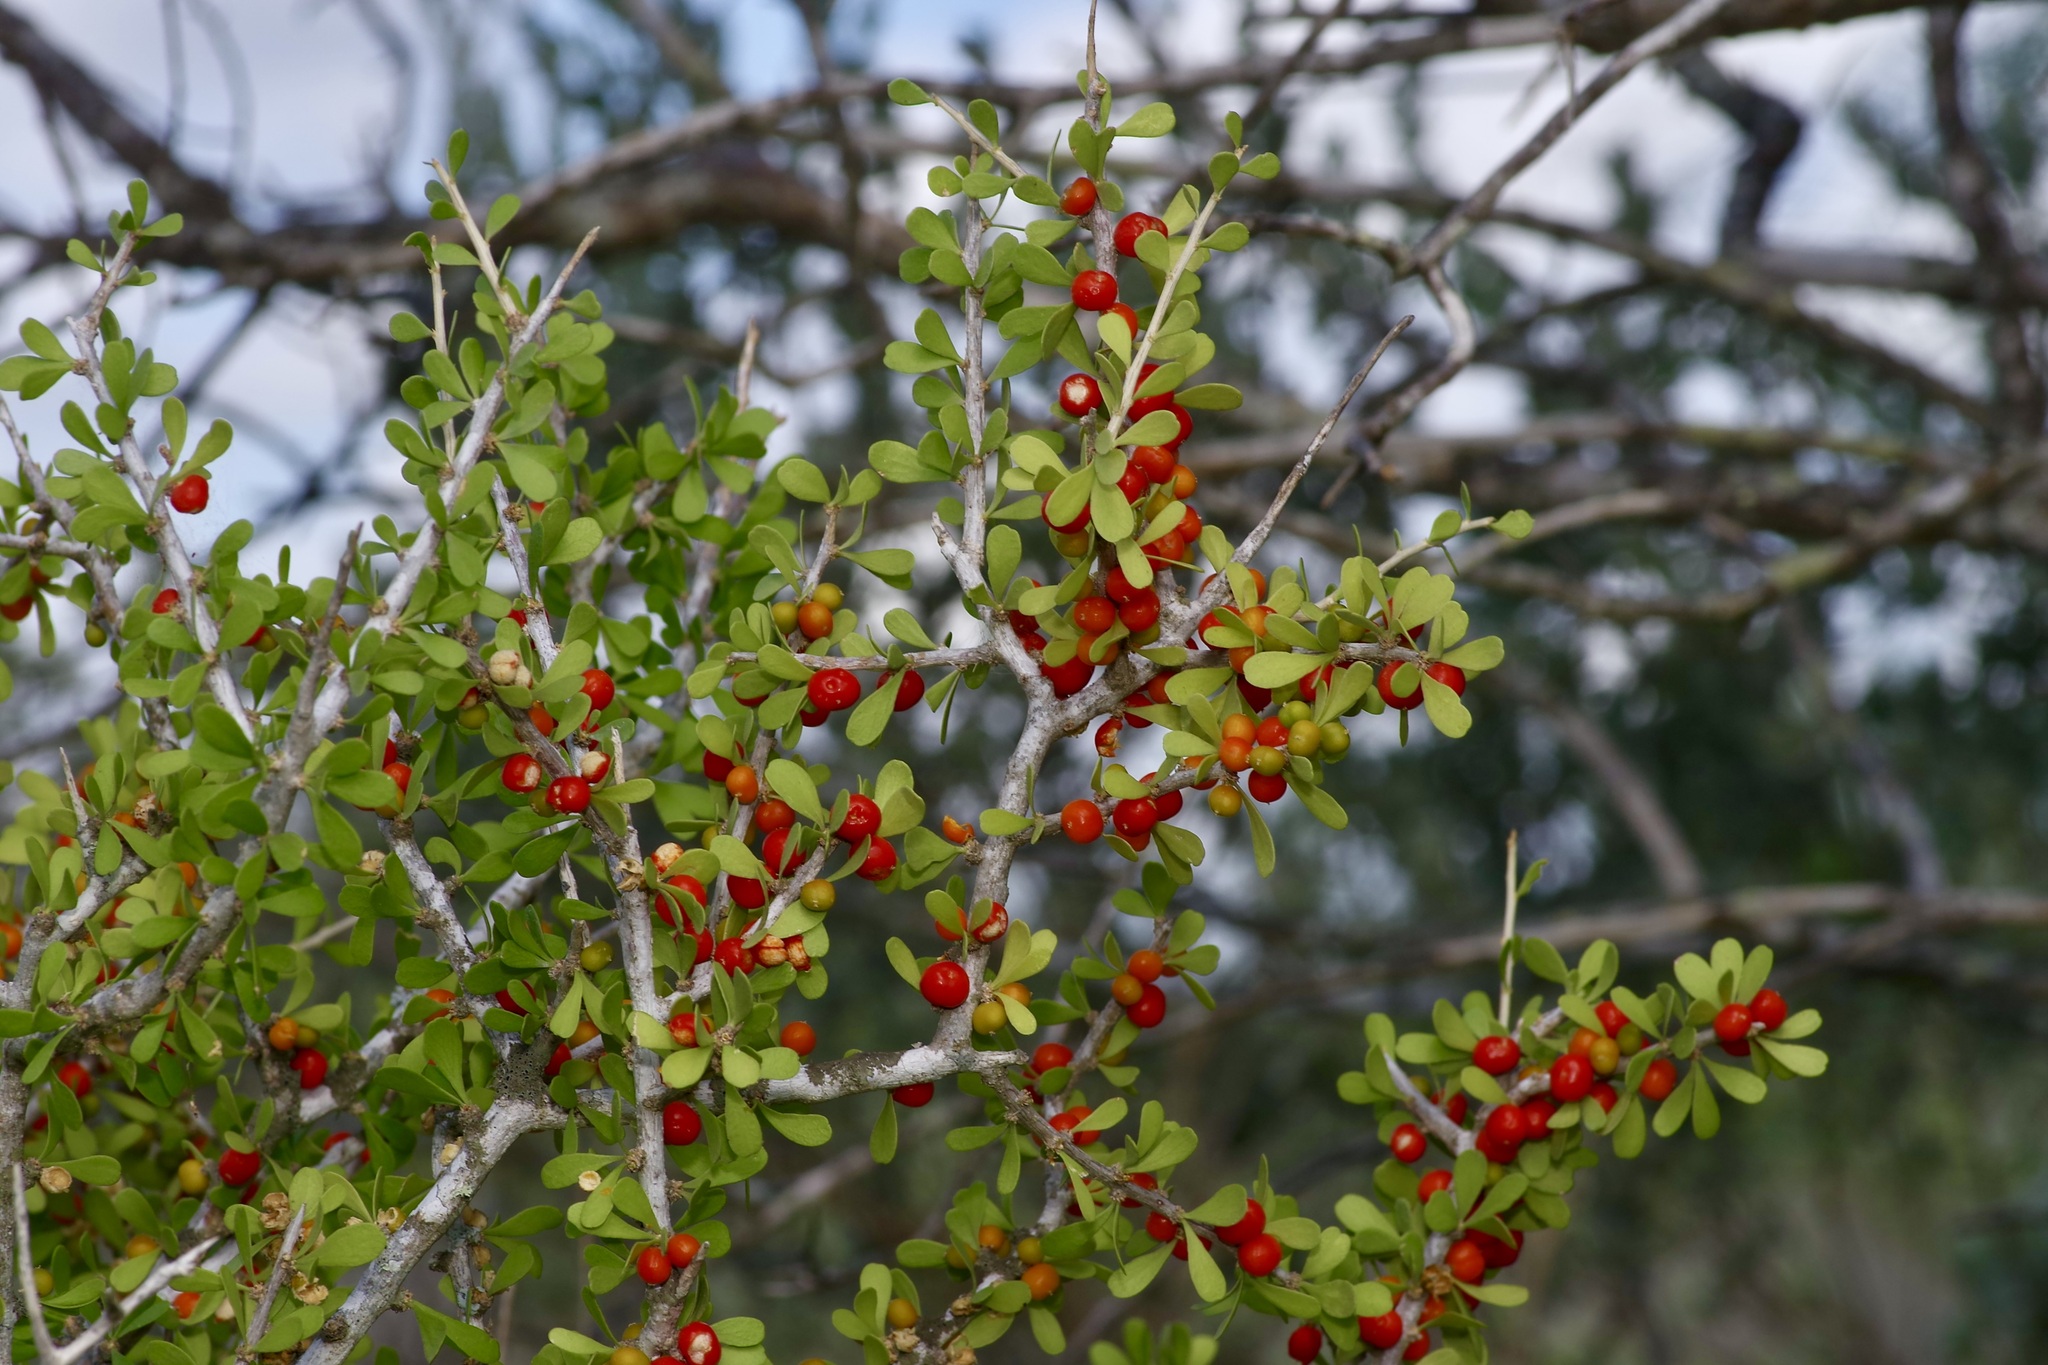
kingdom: Plantae
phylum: Tracheophyta
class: Magnoliopsida
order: Celastrales
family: Celastraceae
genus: Schaefferia
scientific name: Schaefferia cuneifolia
